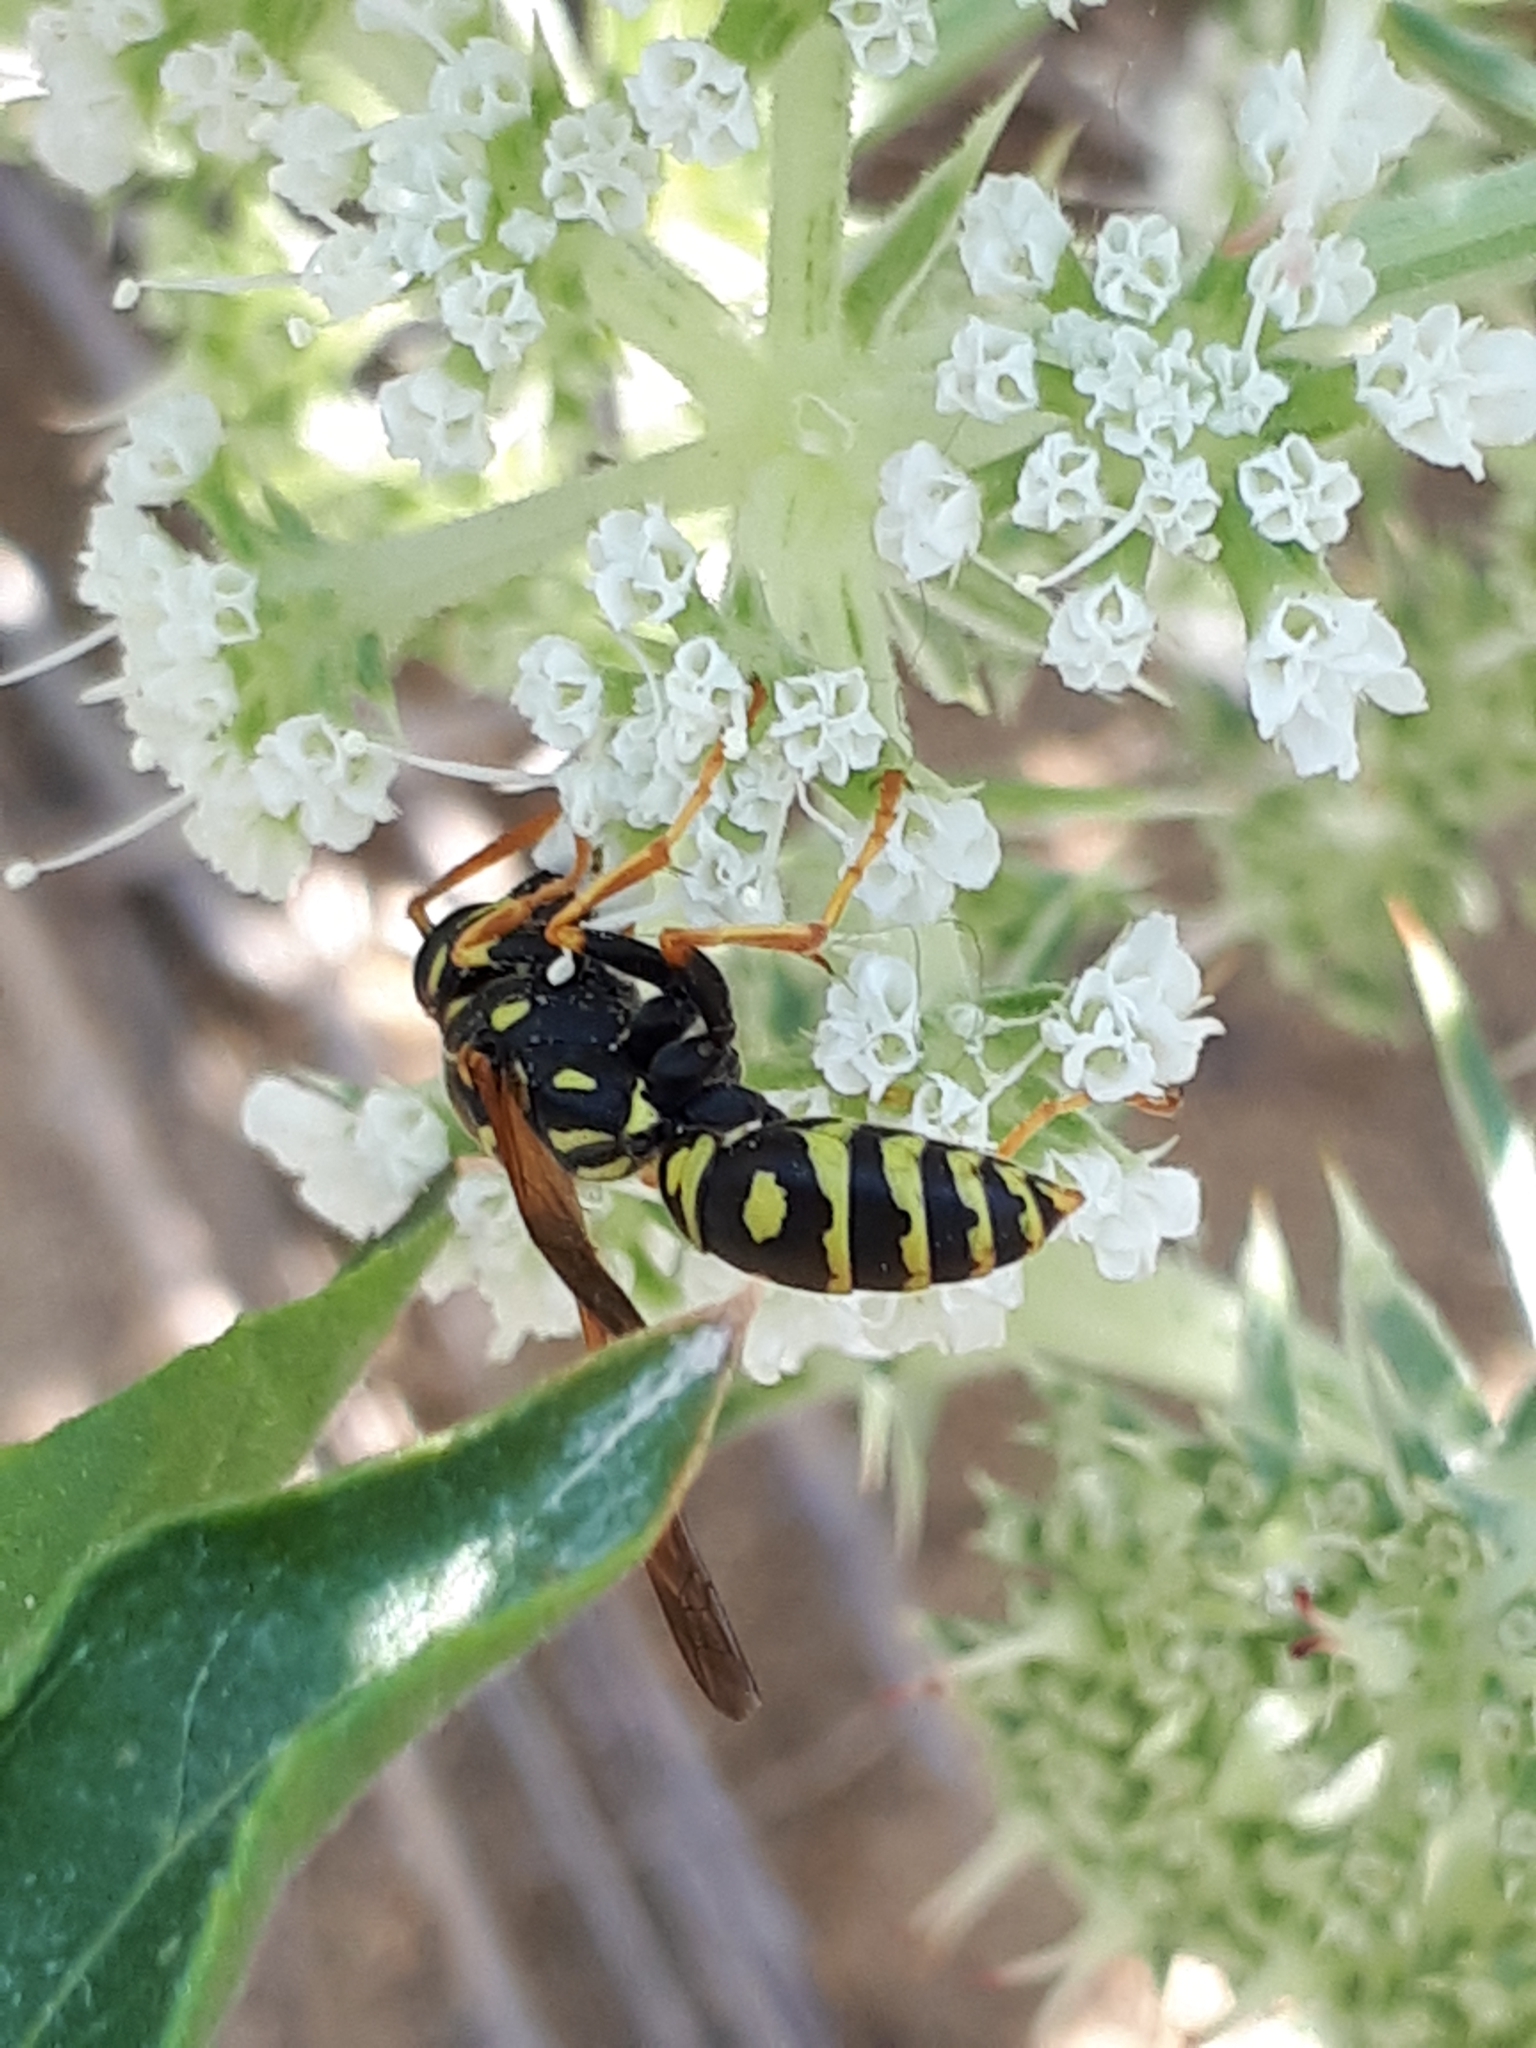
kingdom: Animalia
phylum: Arthropoda
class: Insecta
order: Hymenoptera
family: Eumenidae
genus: Polistes
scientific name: Polistes dominula
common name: Paper wasp
